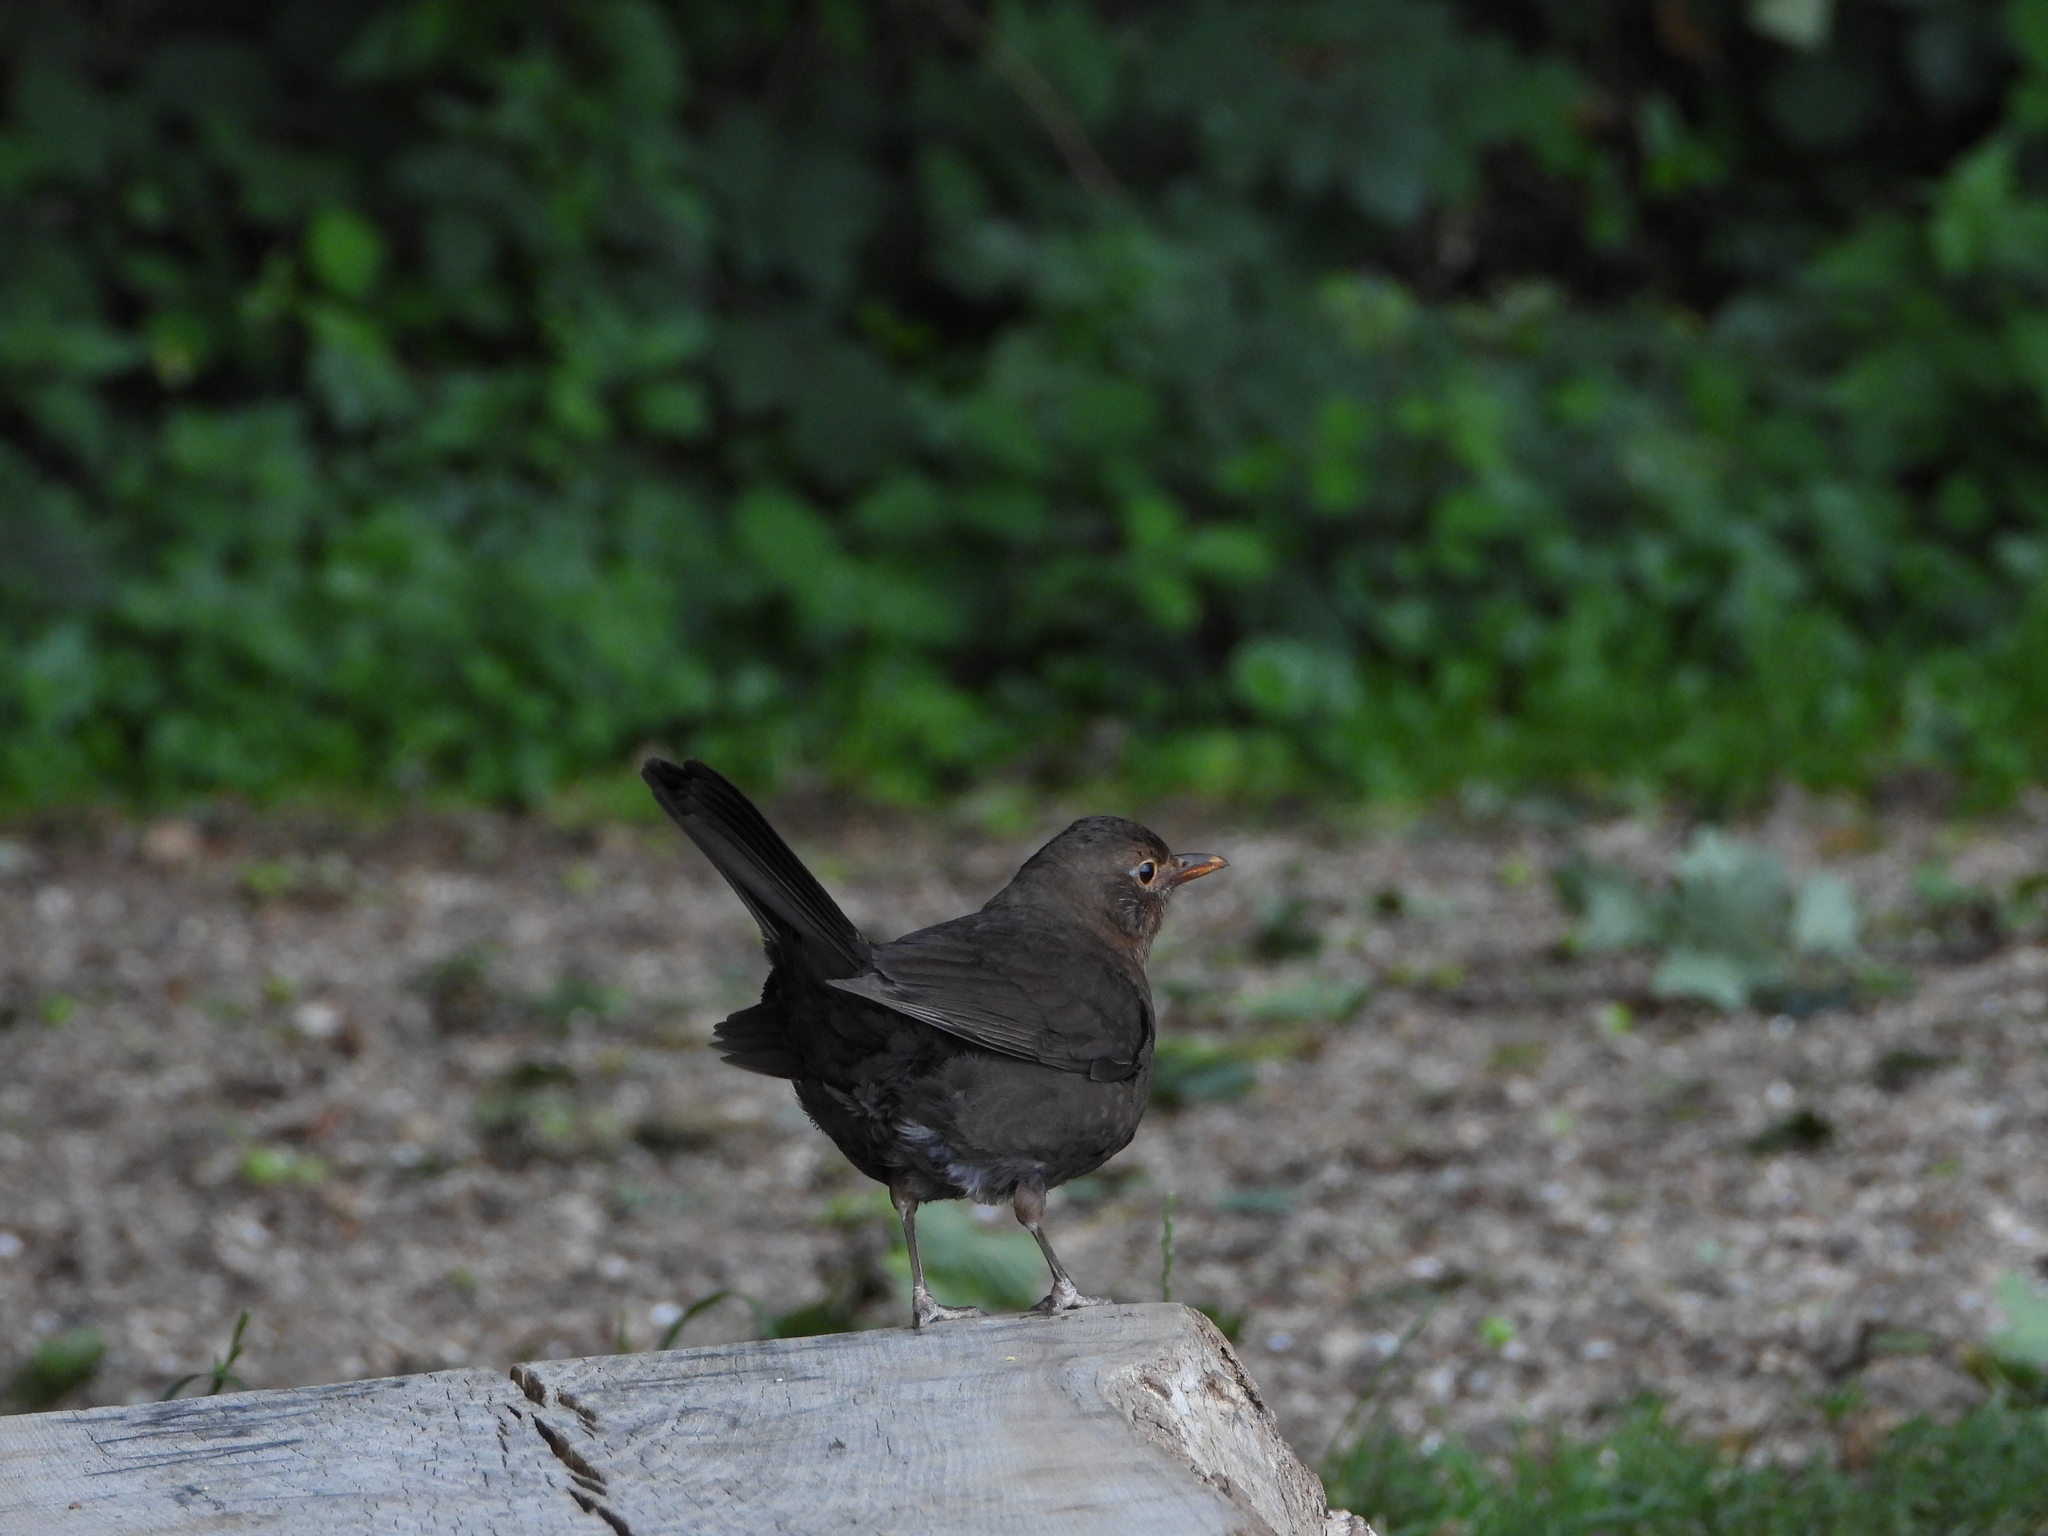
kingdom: Animalia
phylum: Chordata
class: Aves
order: Passeriformes
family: Turdidae
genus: Turdus
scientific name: Turdus merula
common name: Common blackbird
